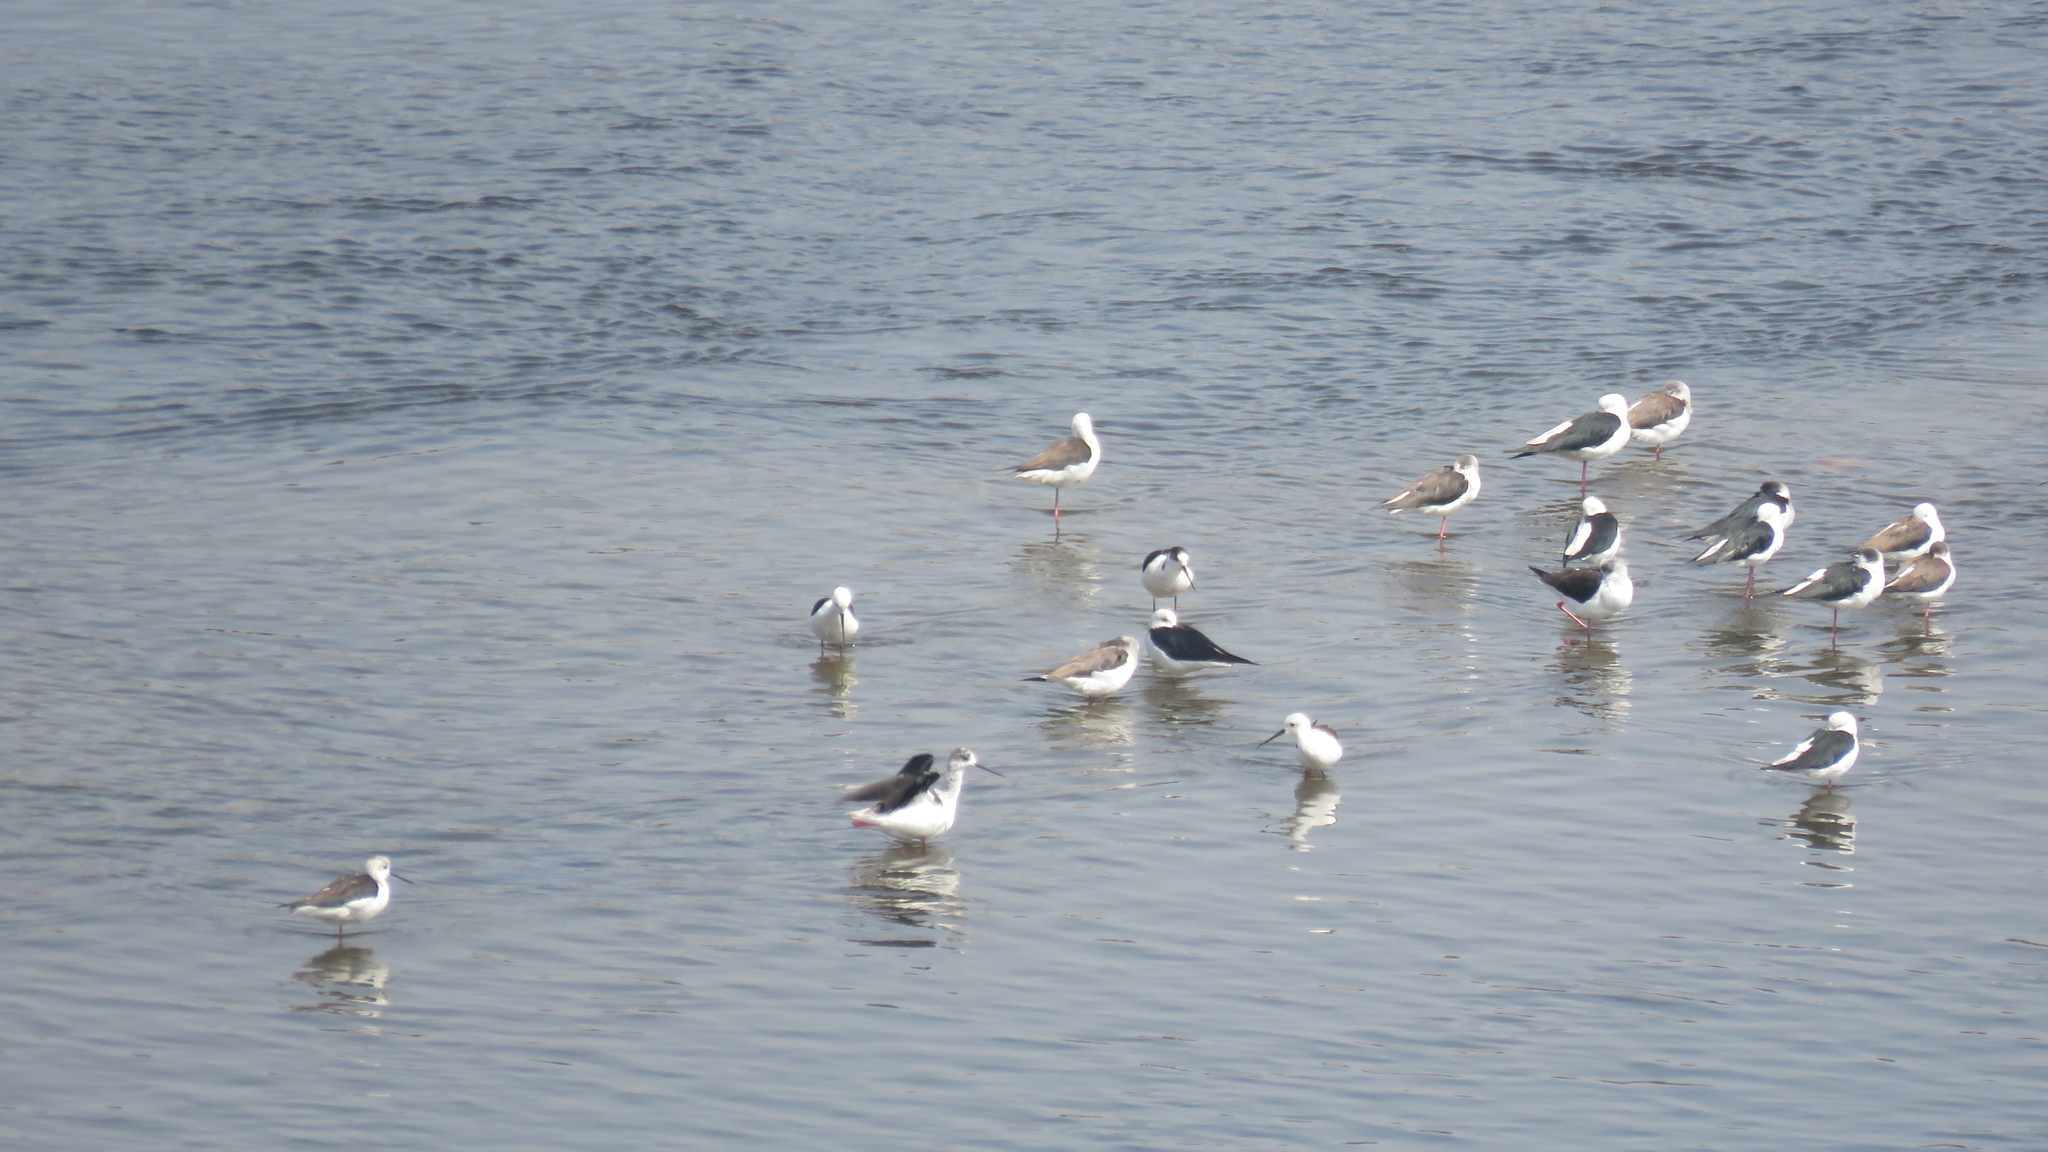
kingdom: Animalia
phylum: Chordata
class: Aves
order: Charadriiformes
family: Recurvirostridae
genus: Himantopus
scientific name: Himantopus himantopus
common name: Black-winged stilt
